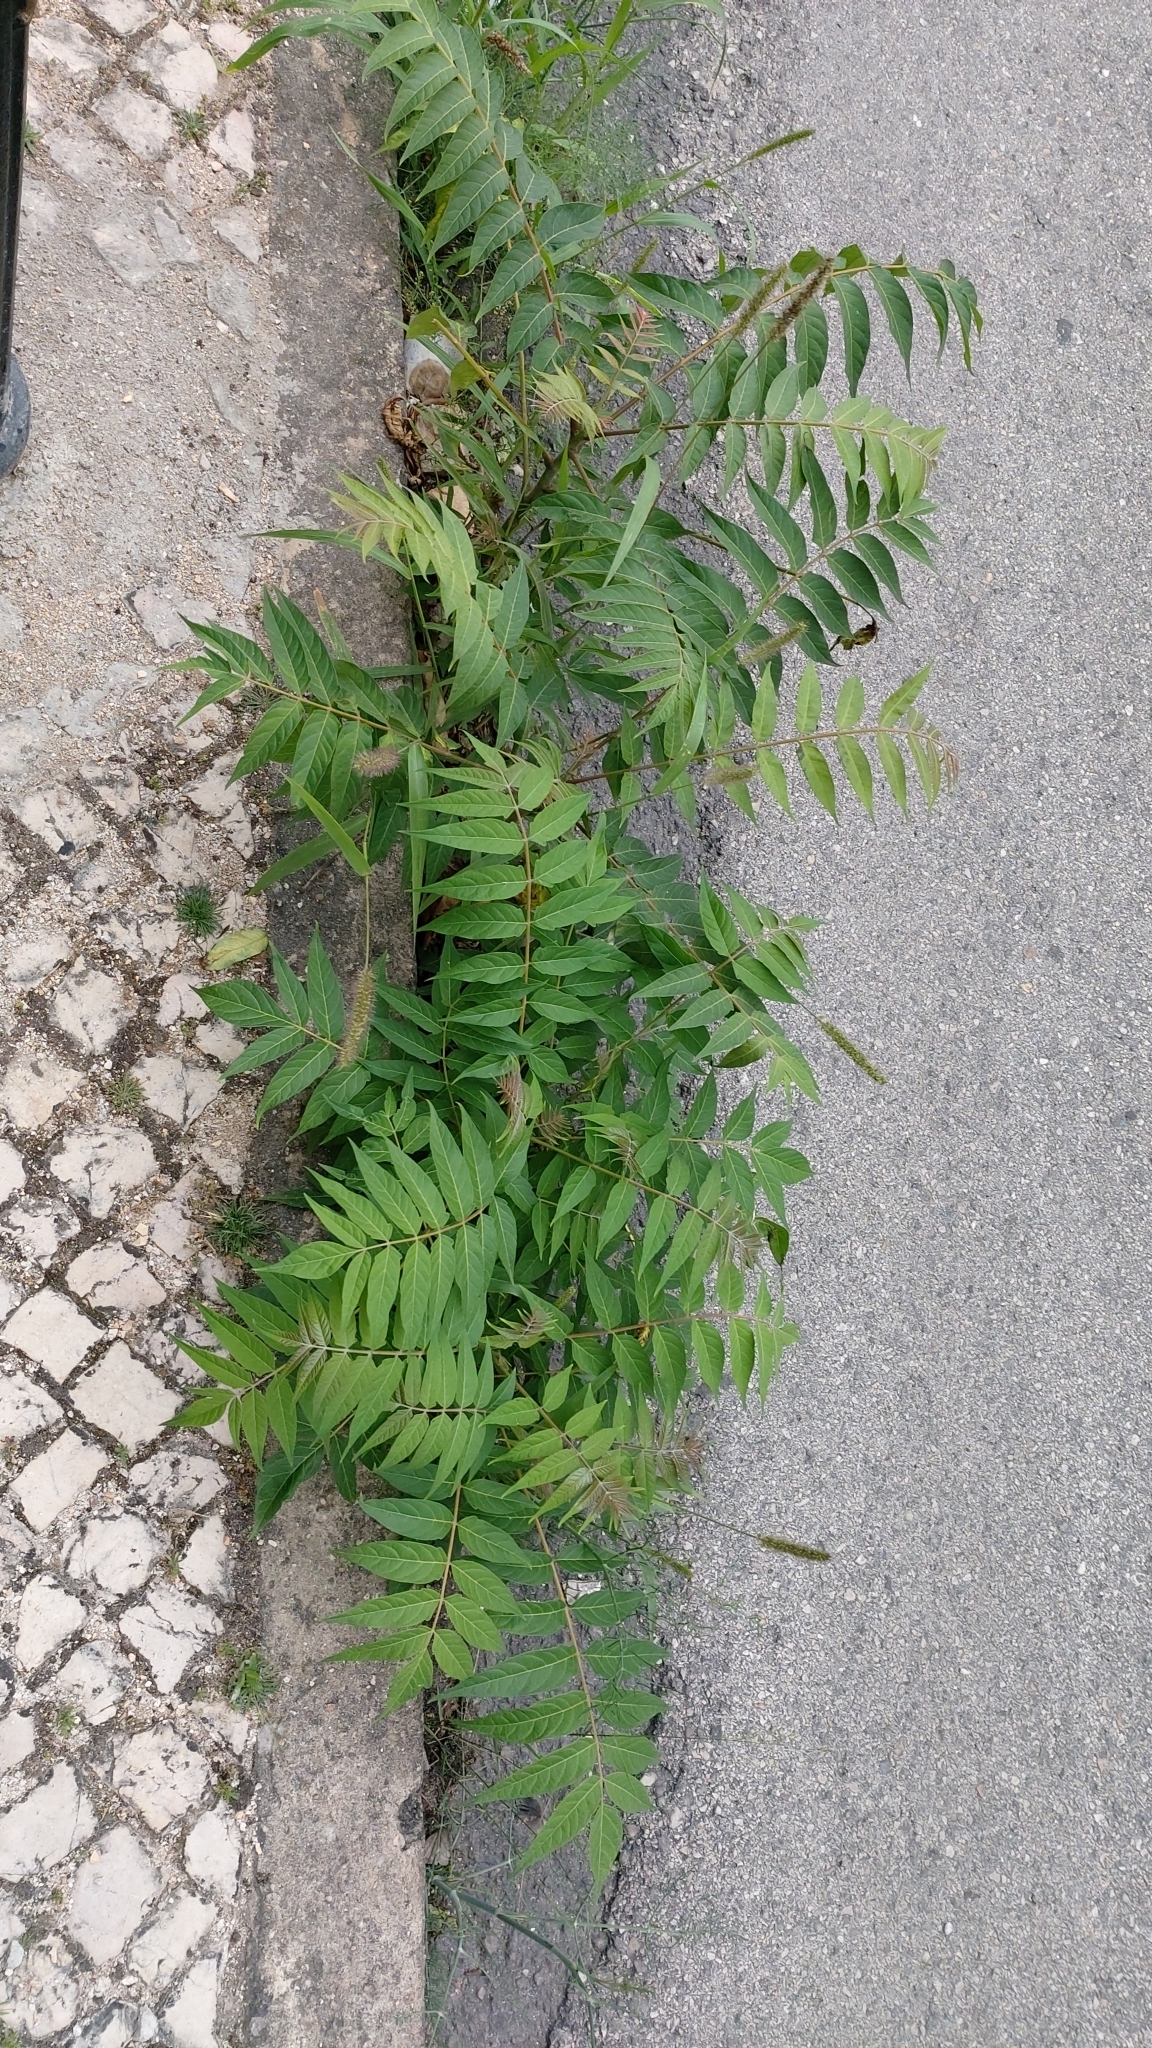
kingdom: Plantae
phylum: Tracheophyta
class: Magnoliopsida
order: Sapindales
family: Simaroubaceae
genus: Ailanthus
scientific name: Ailanthus altissima
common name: Tree-of-heaven
